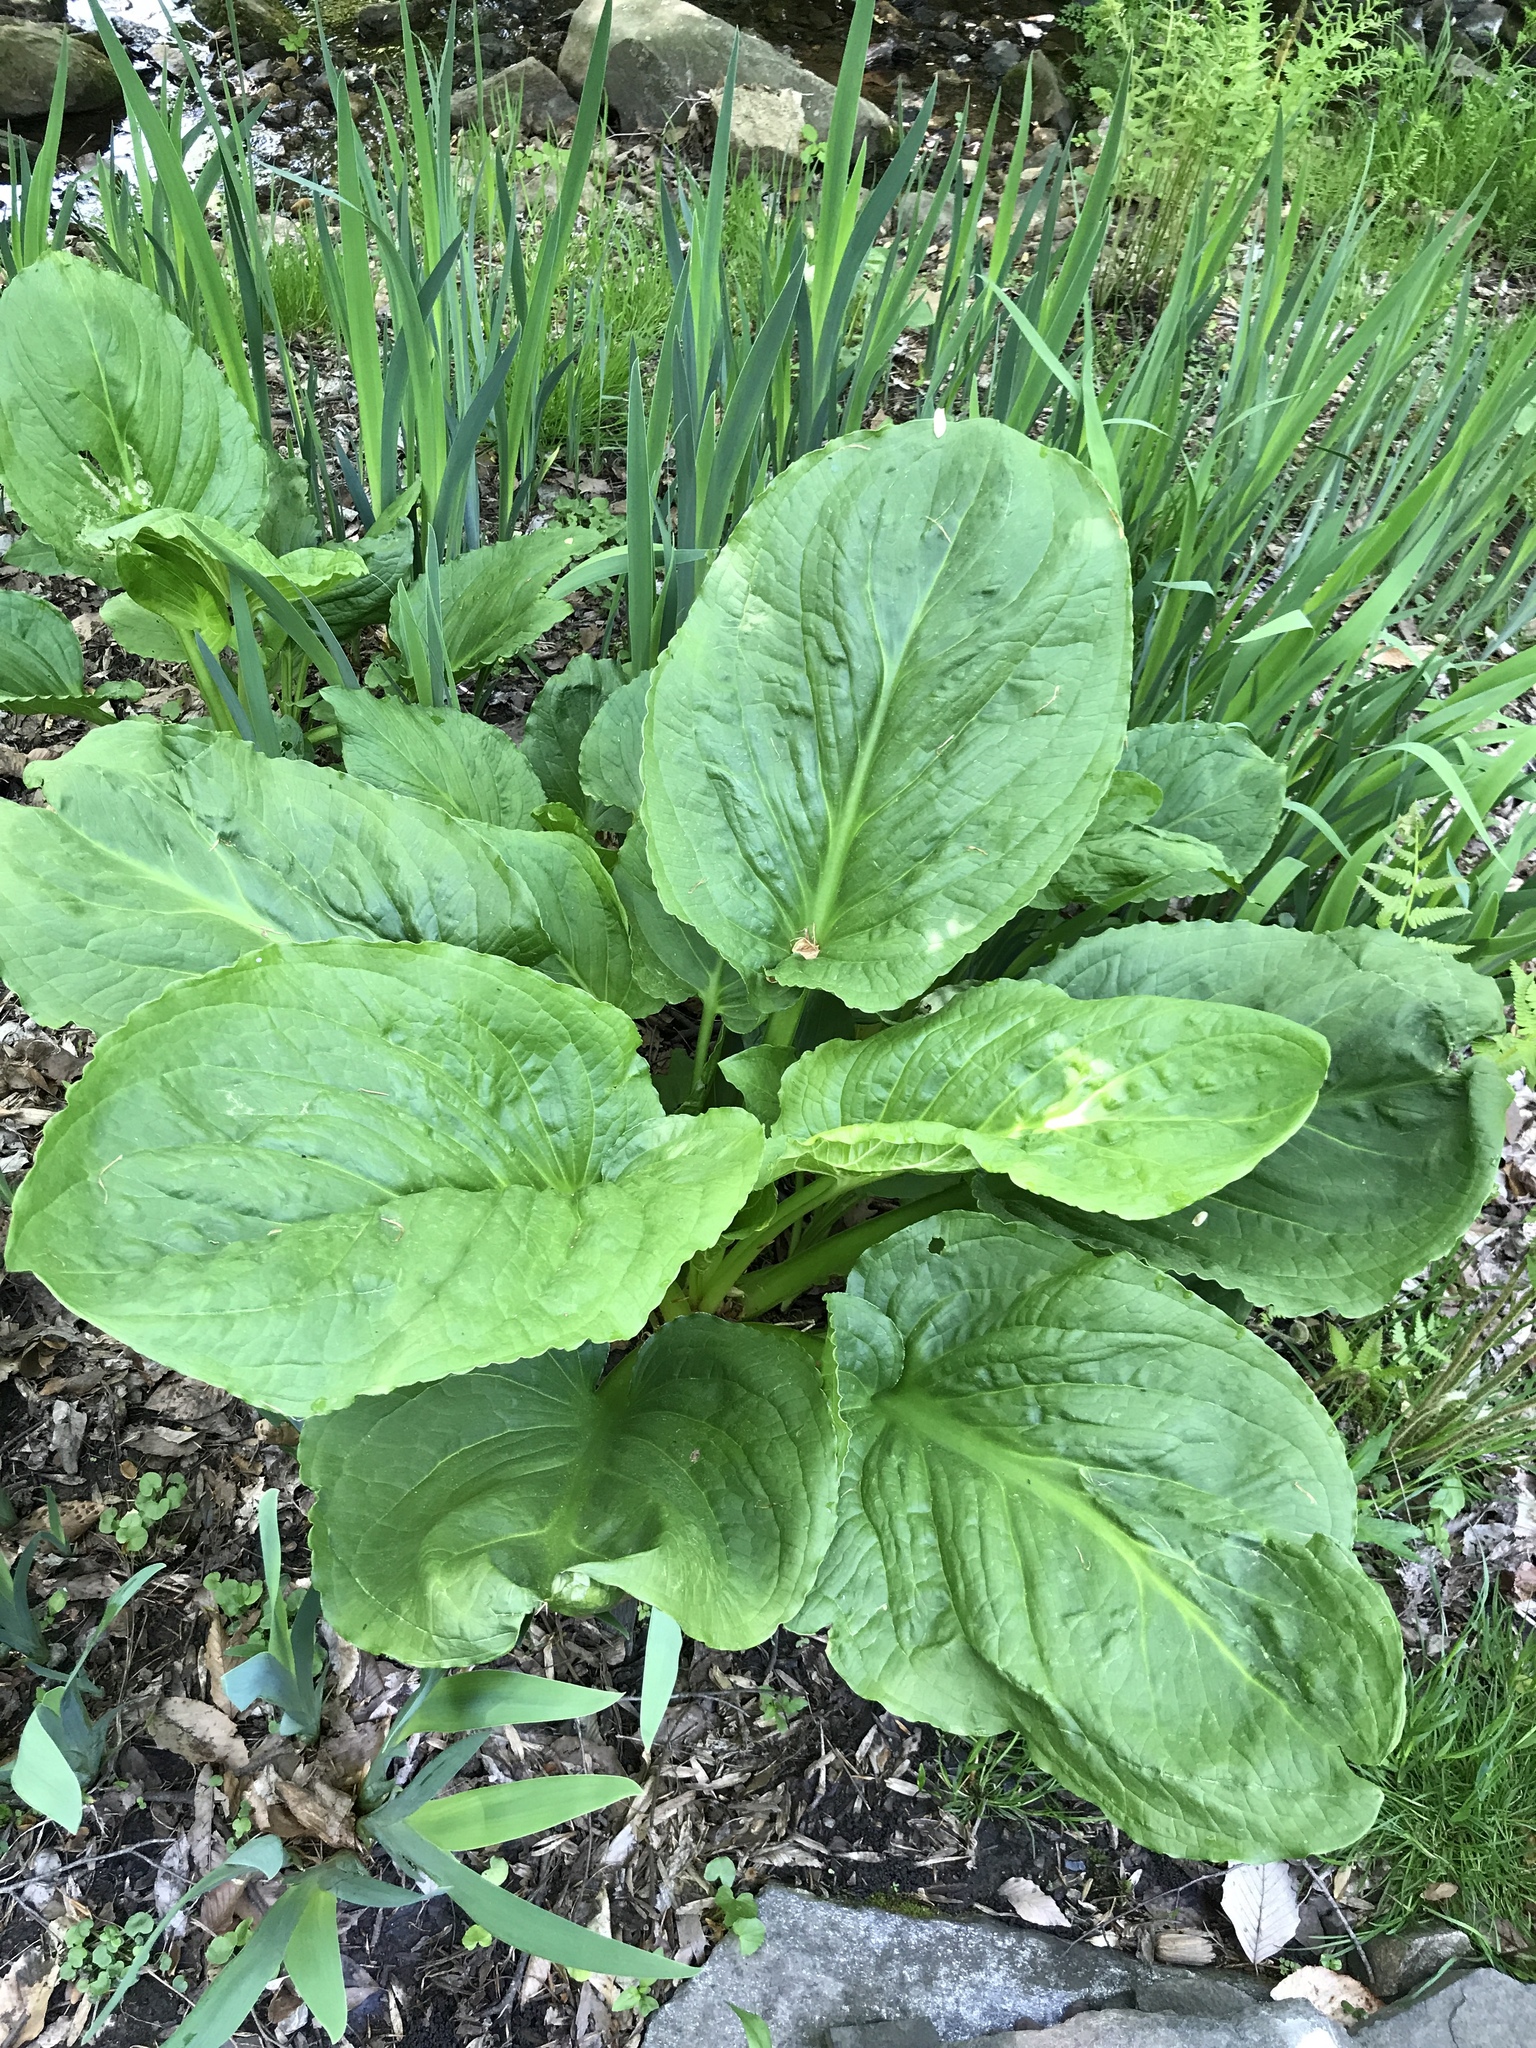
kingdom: Plantae
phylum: Tracheophyta
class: Liliopsida
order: Alismatales
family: Araceae
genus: Symplocarpus
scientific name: Symplocarpus foetidus
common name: Eastern skunk cabbage
